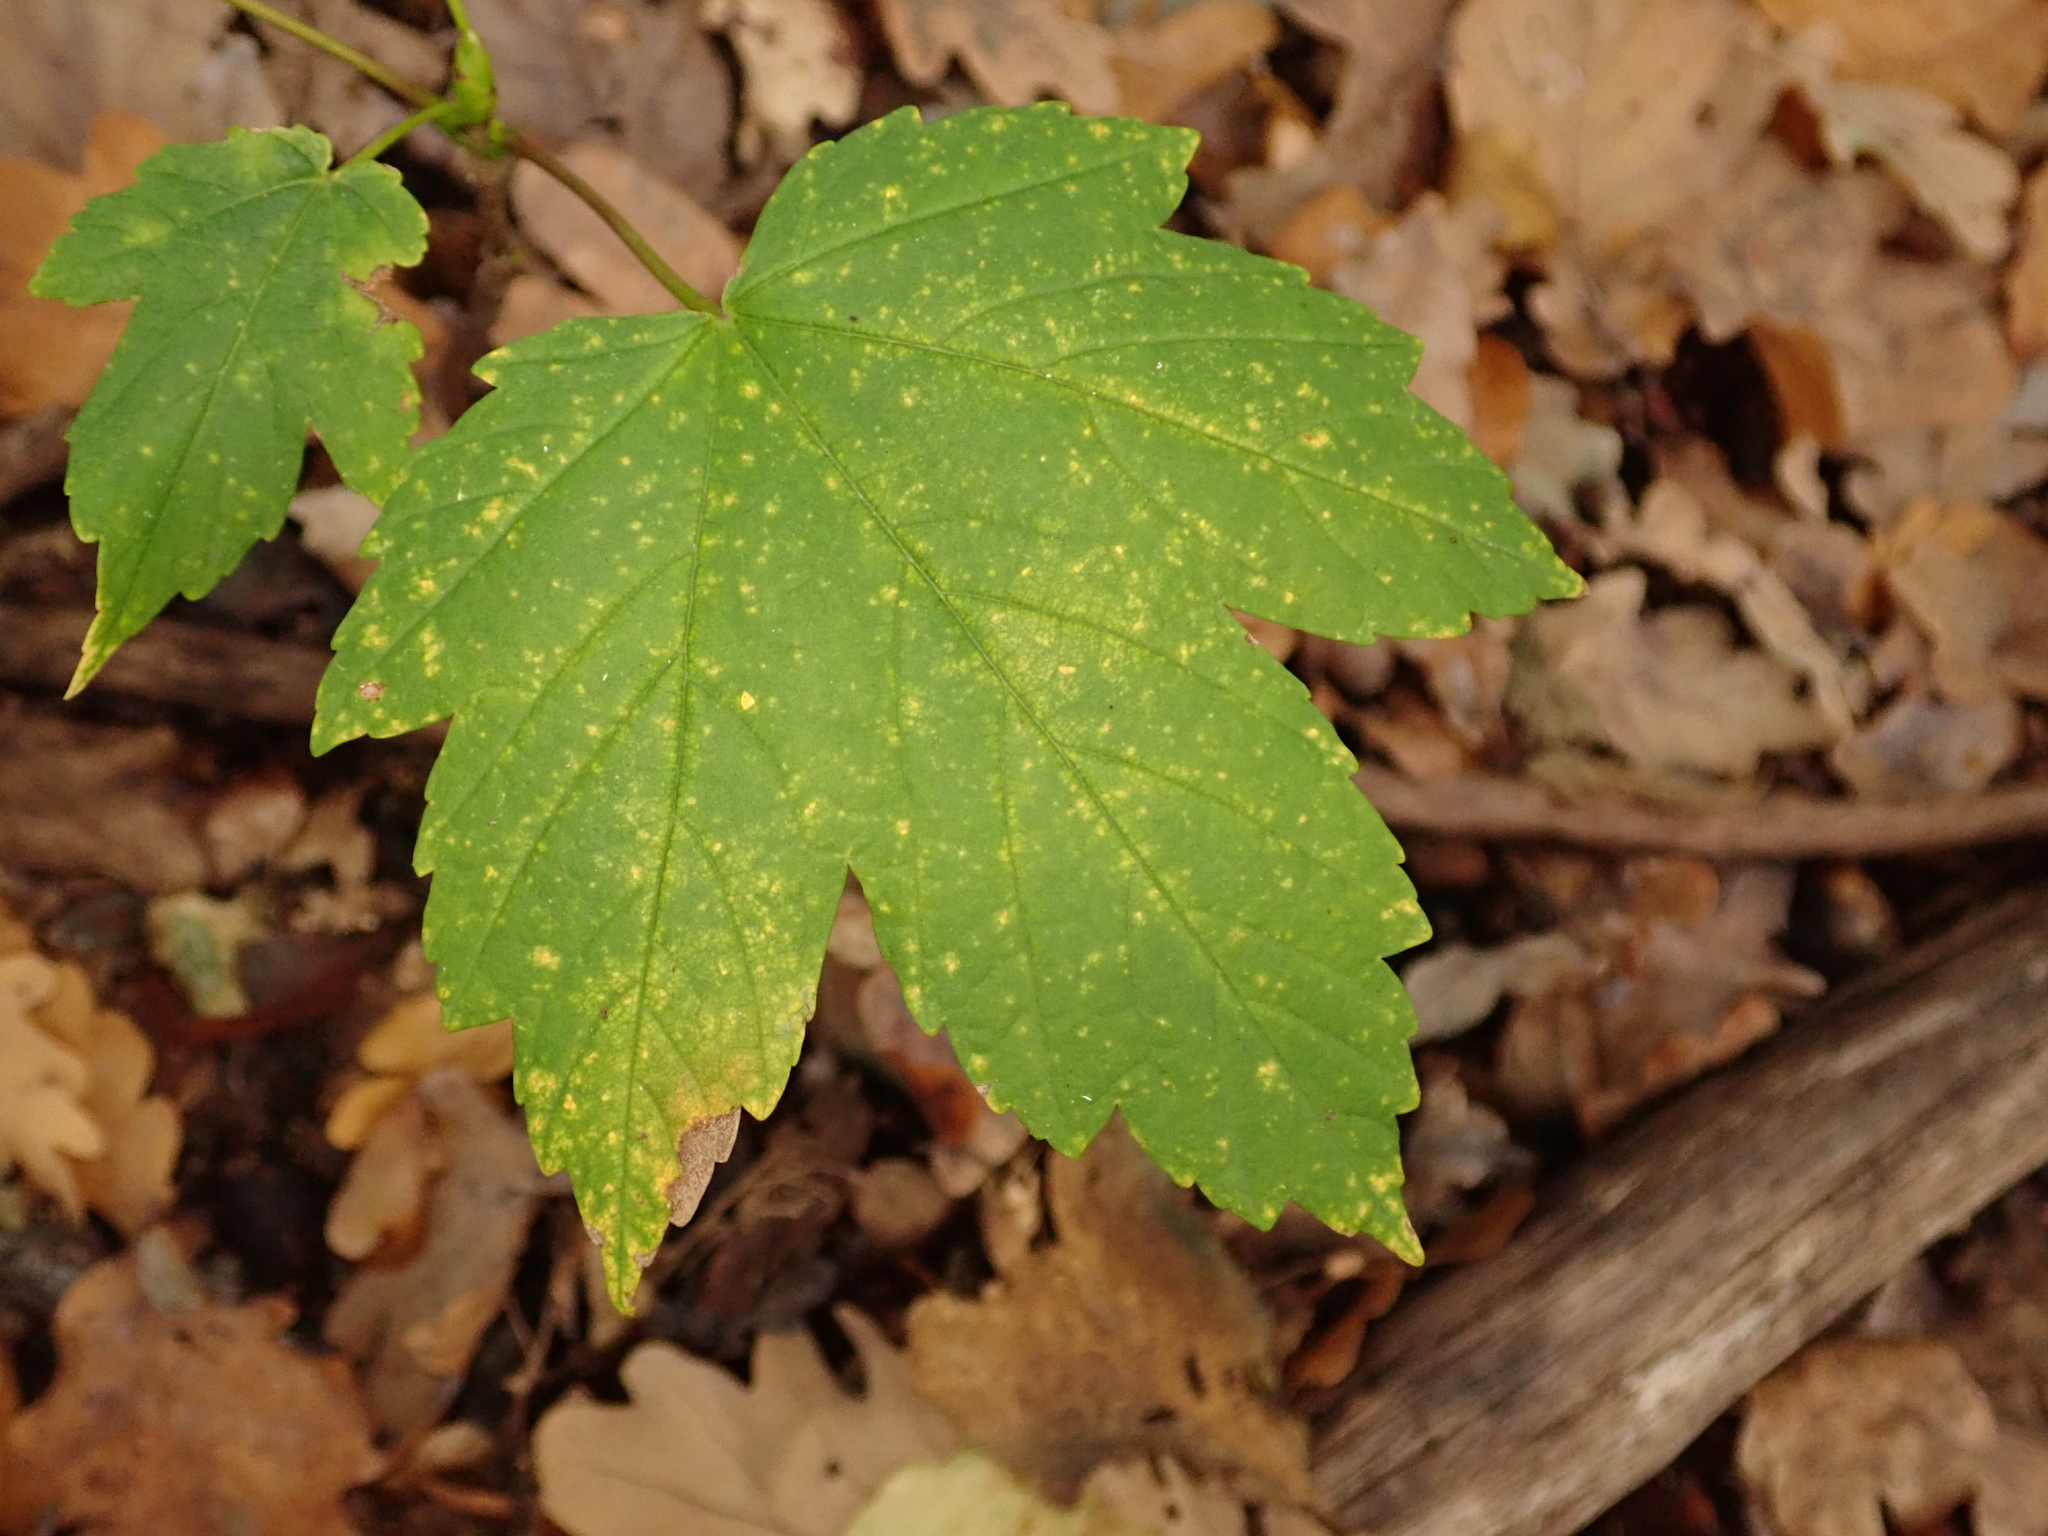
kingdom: Plantae
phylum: Tracheophyta
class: Magnoliopsida
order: Sapindales
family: Sapindaceae
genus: Acer
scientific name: Acer pseudoplatanus
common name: Sycamore
